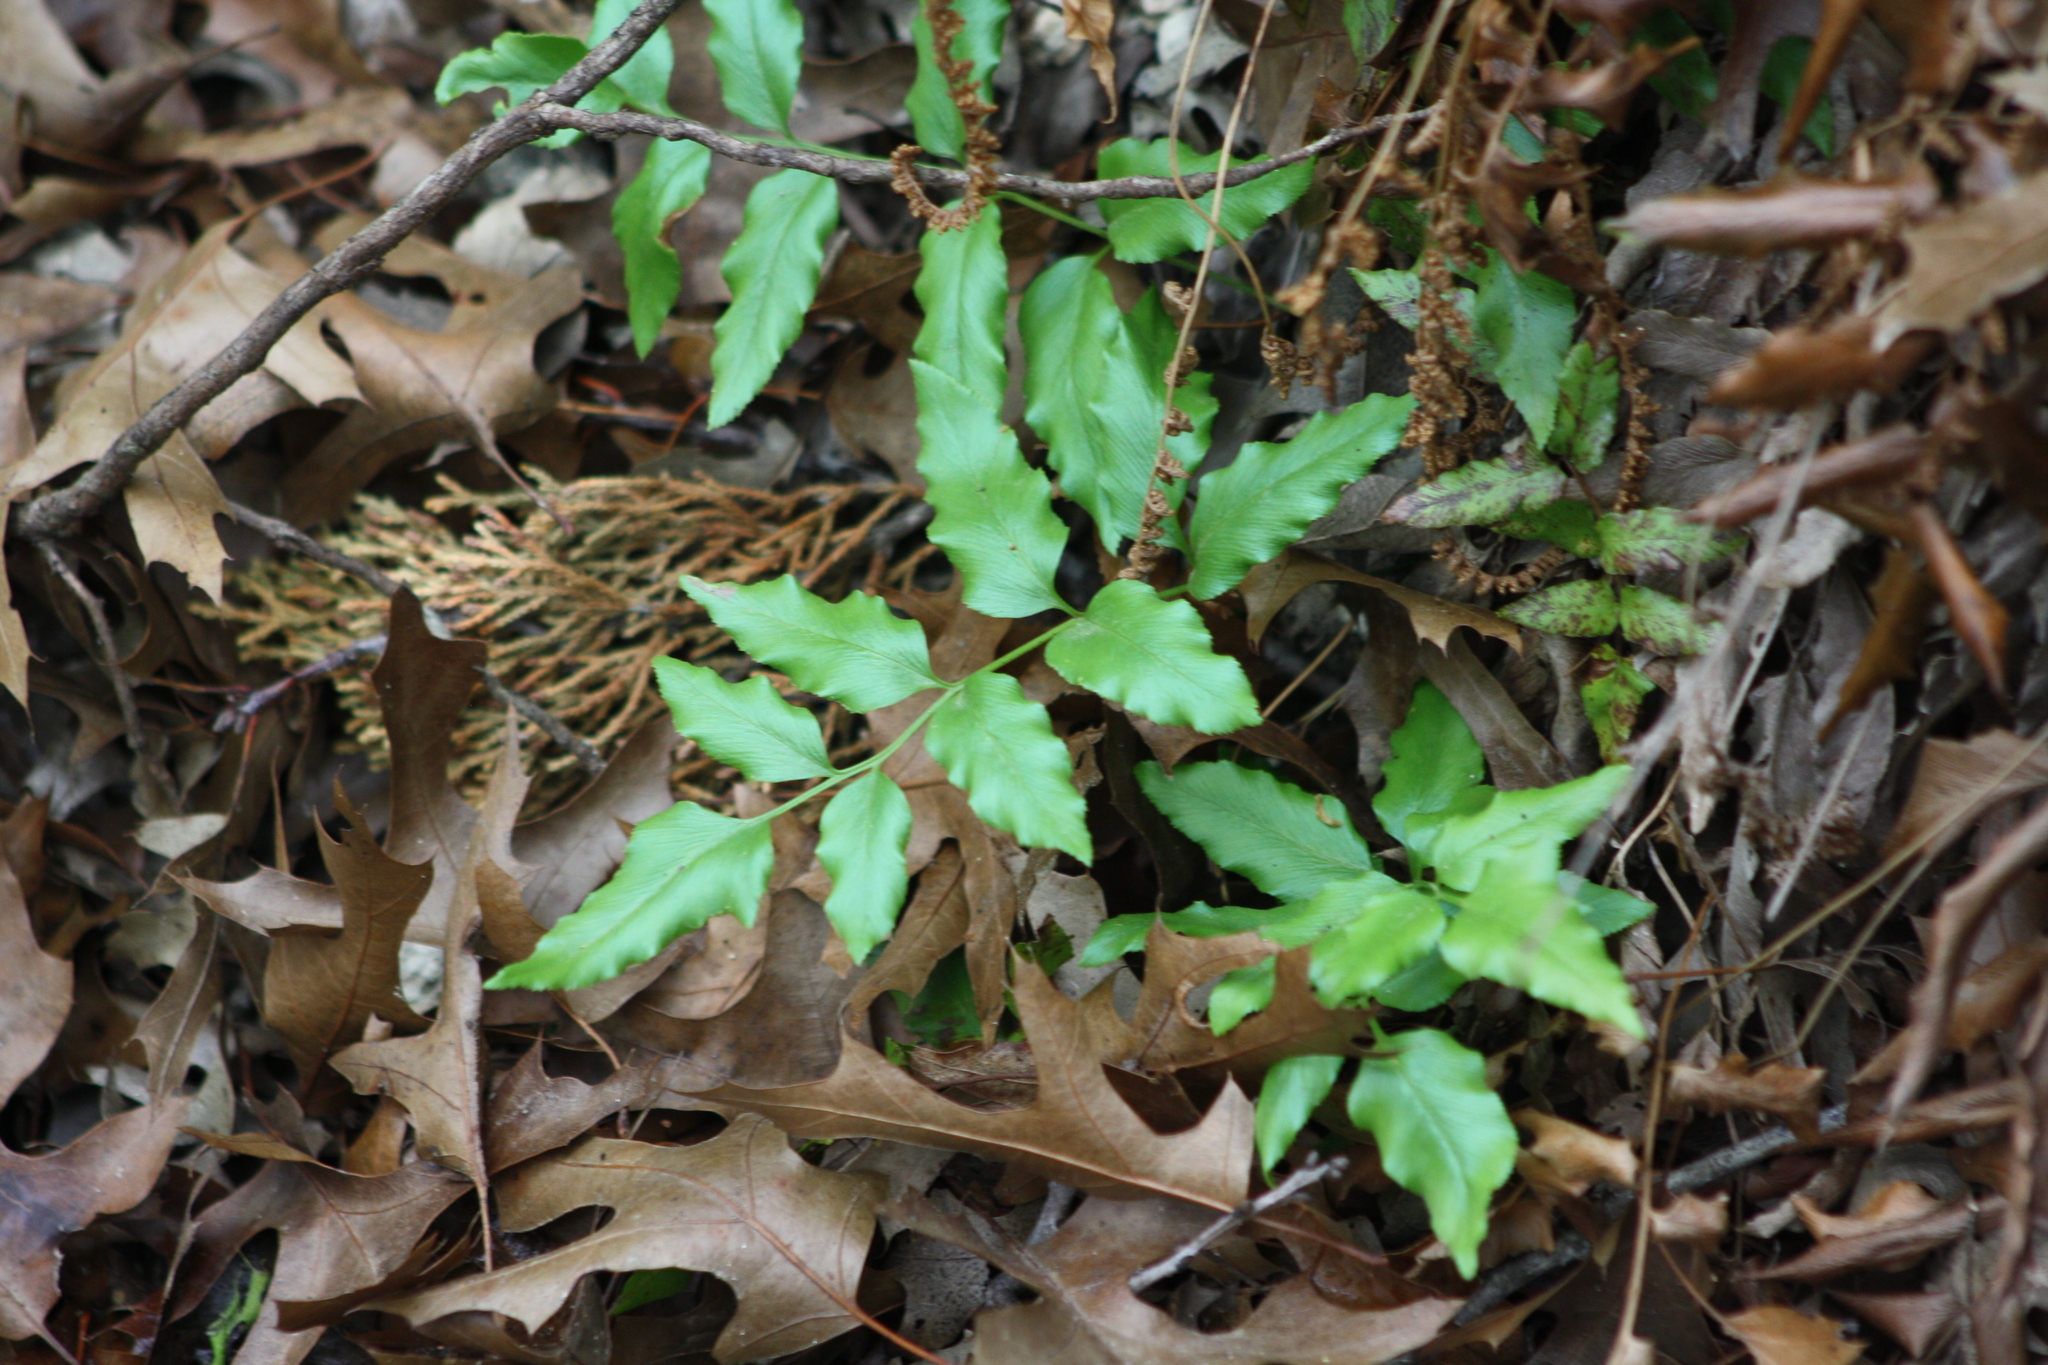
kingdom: Plantae
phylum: Tracheophyta
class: Polypodiopsida
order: Schizaeales
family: Anemiaceae
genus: Anemia
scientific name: Anemia mexicana
